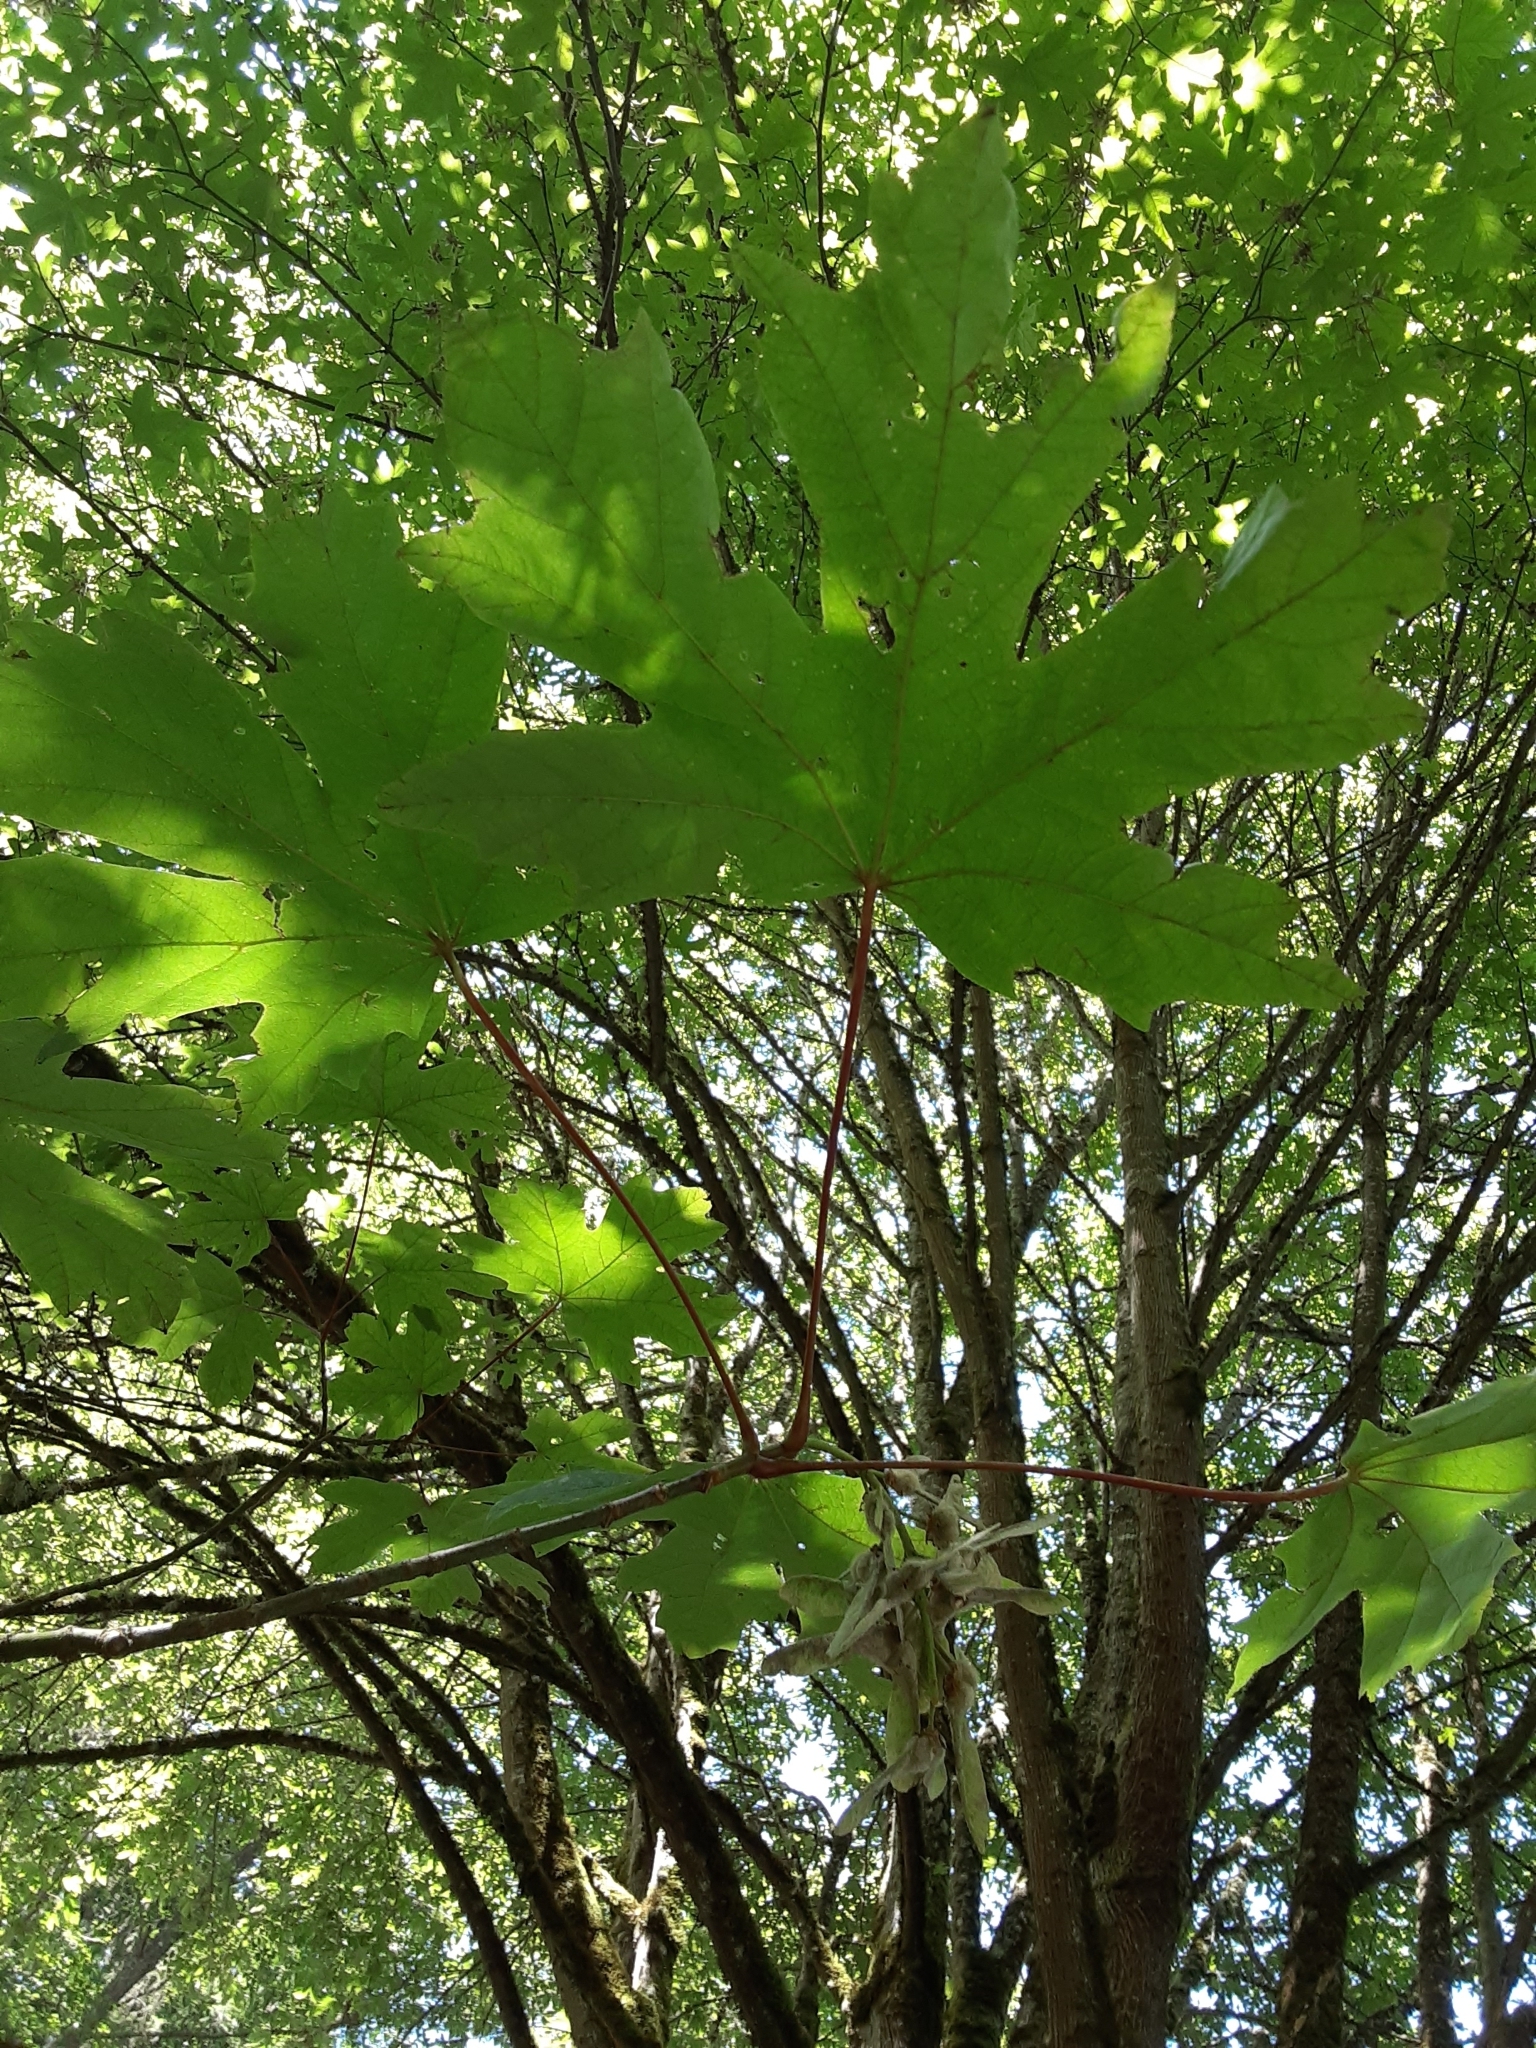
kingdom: Plantae
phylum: Tracheophyta
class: Magnoliopsida
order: Sapindales
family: Sapindaceae
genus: Acer
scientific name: Acer macrophyllum
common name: Oregon maple
